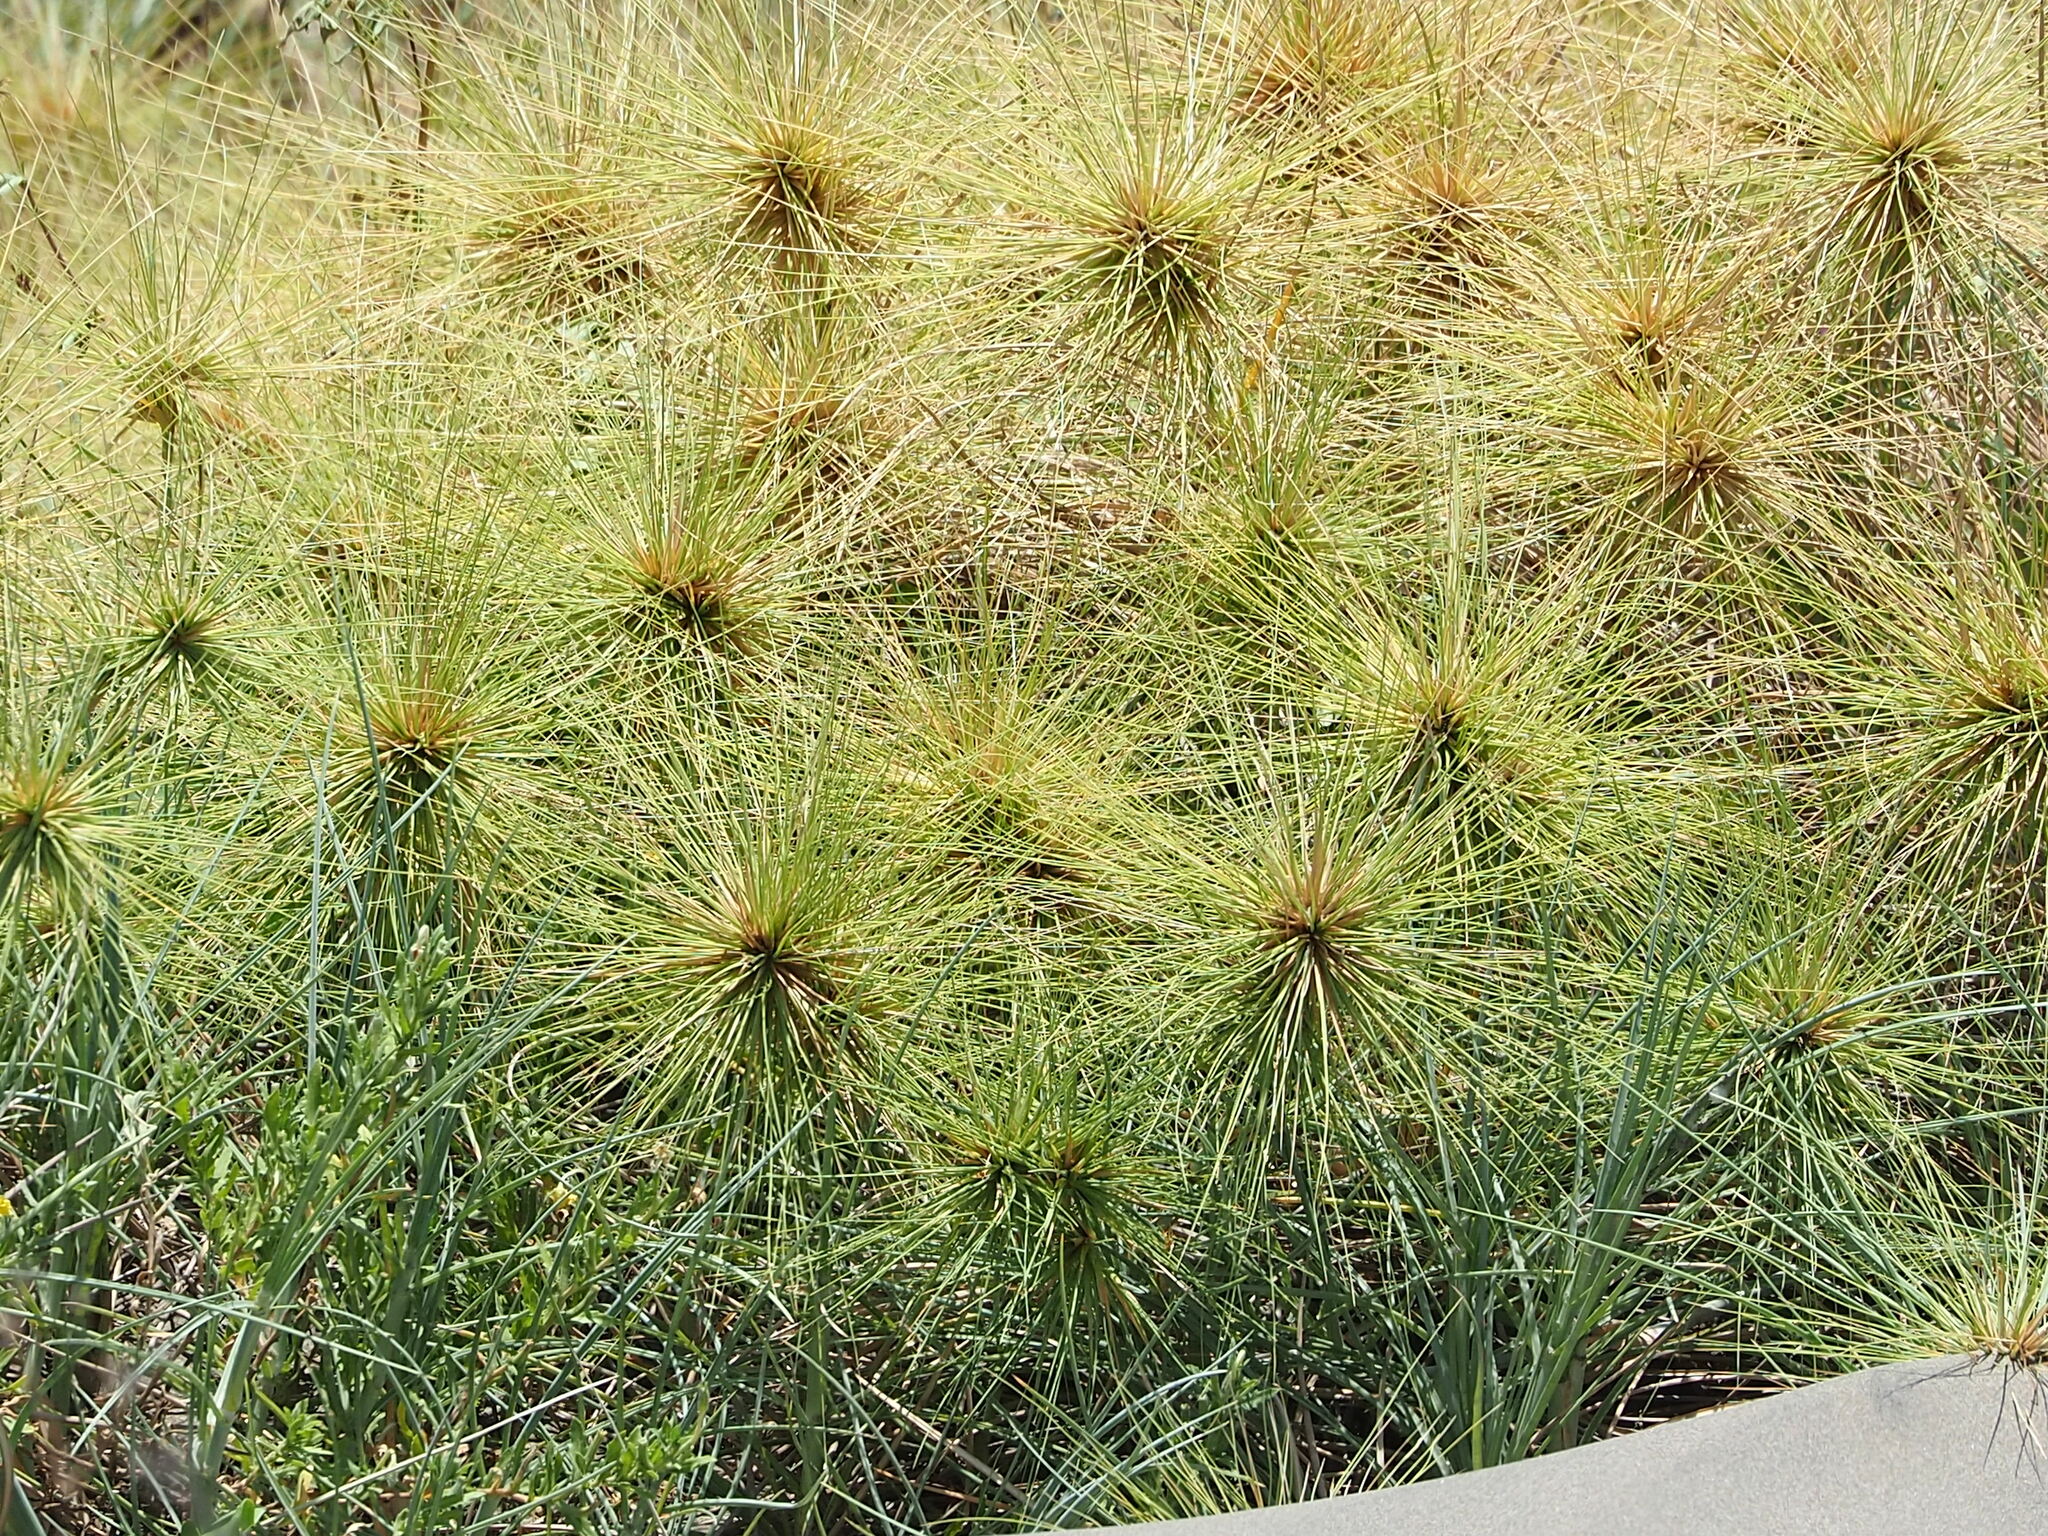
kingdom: Plantae
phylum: Tracheophyta
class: Liliopsida
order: Poales
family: Poaceae
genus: Spinifex
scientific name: Spinifex littoreus
